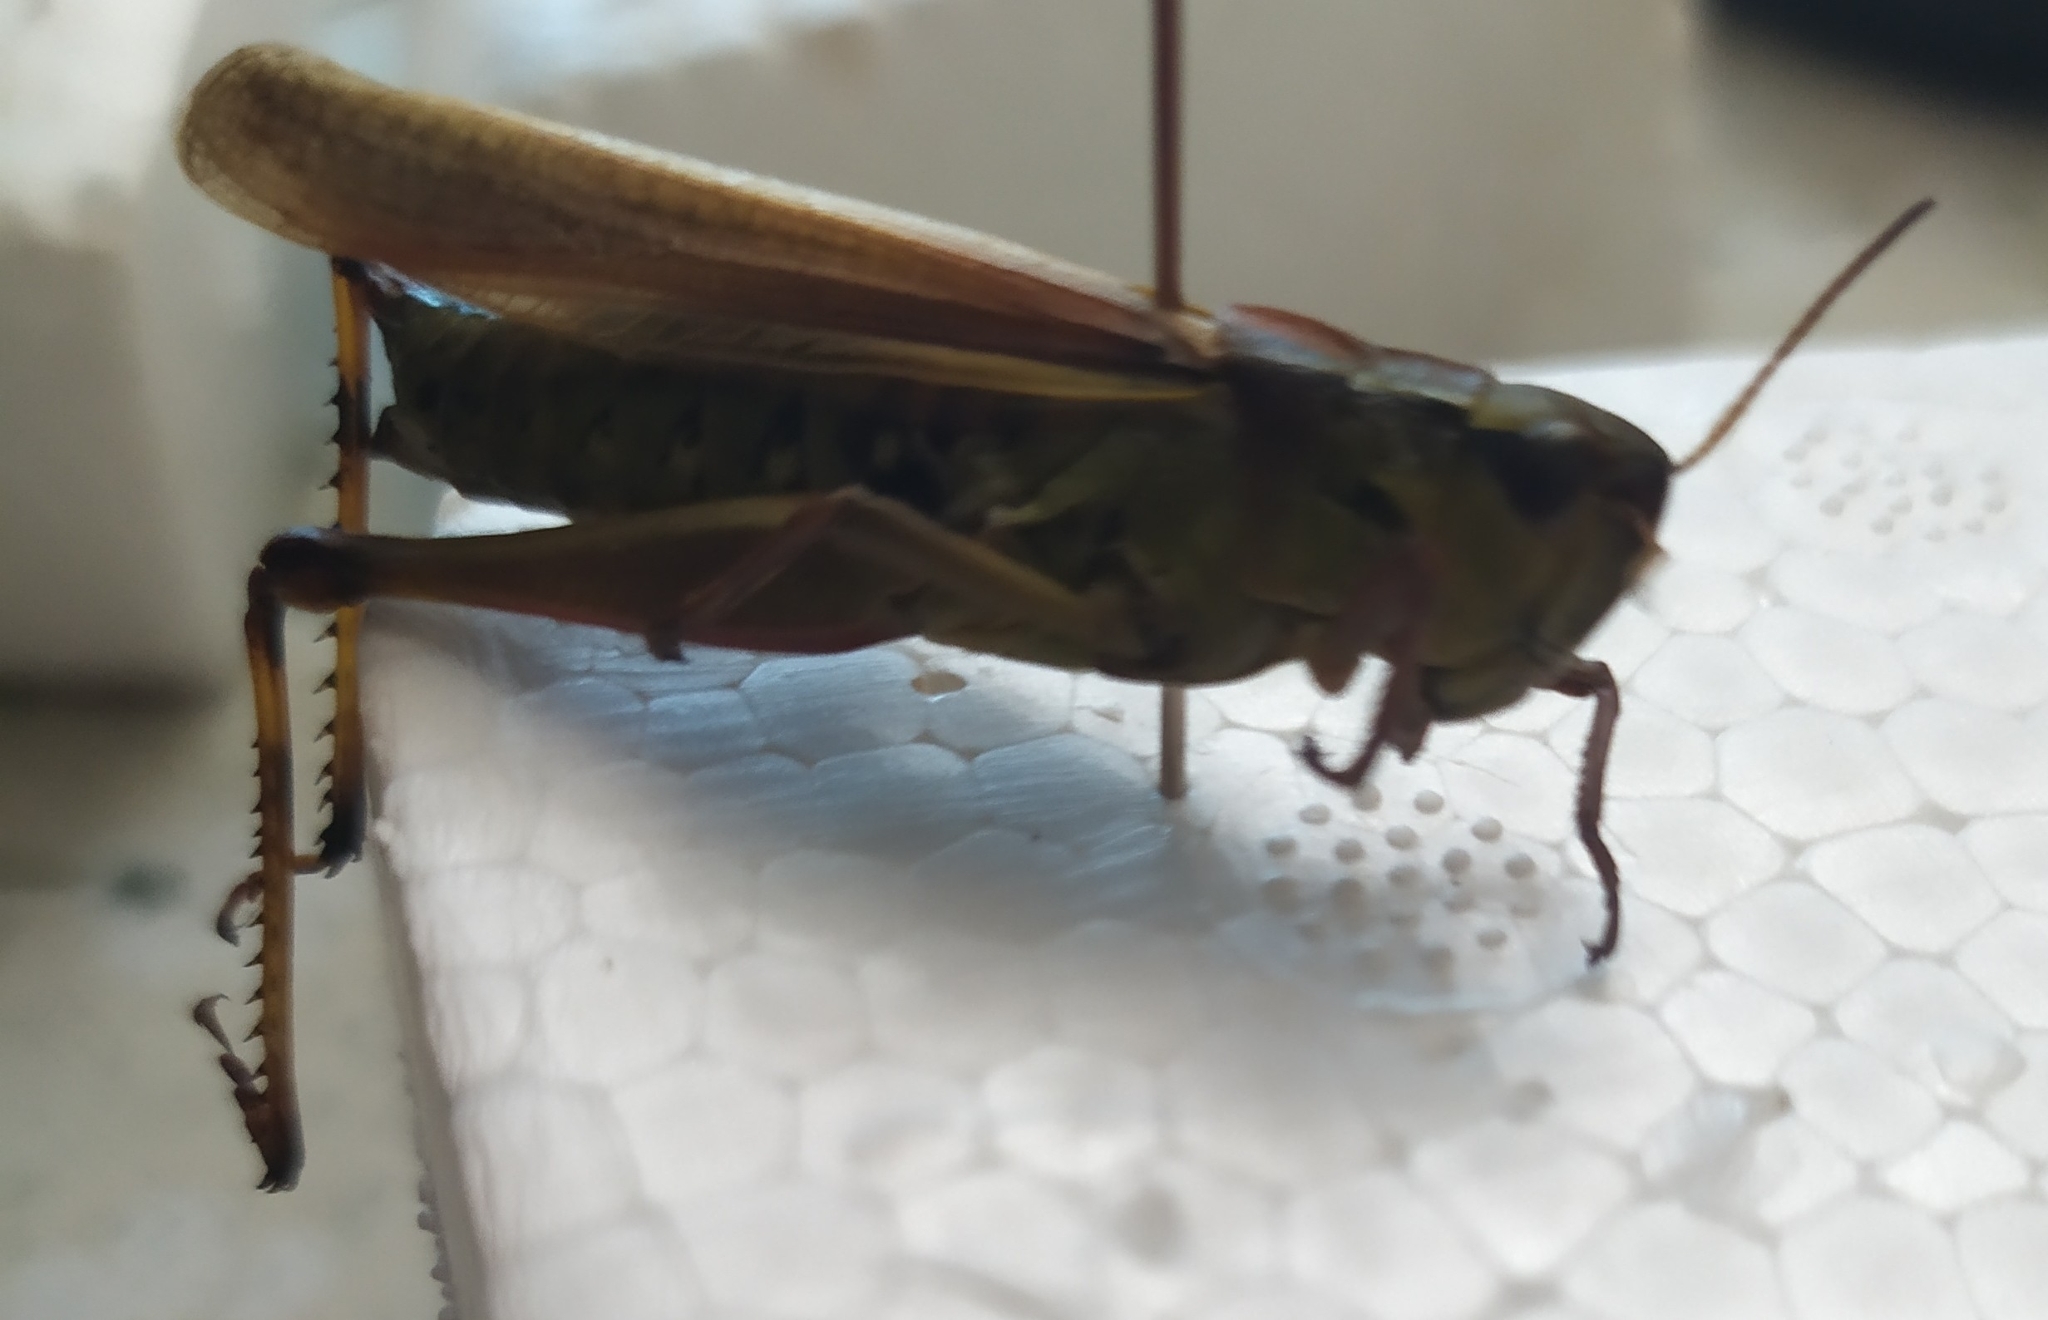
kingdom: Animalia
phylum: Arthropoda
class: Insecta
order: Orthoptera
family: Acrididae
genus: Stethophyma
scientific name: Stethophyma grossum
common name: Large marsh grasshopper
